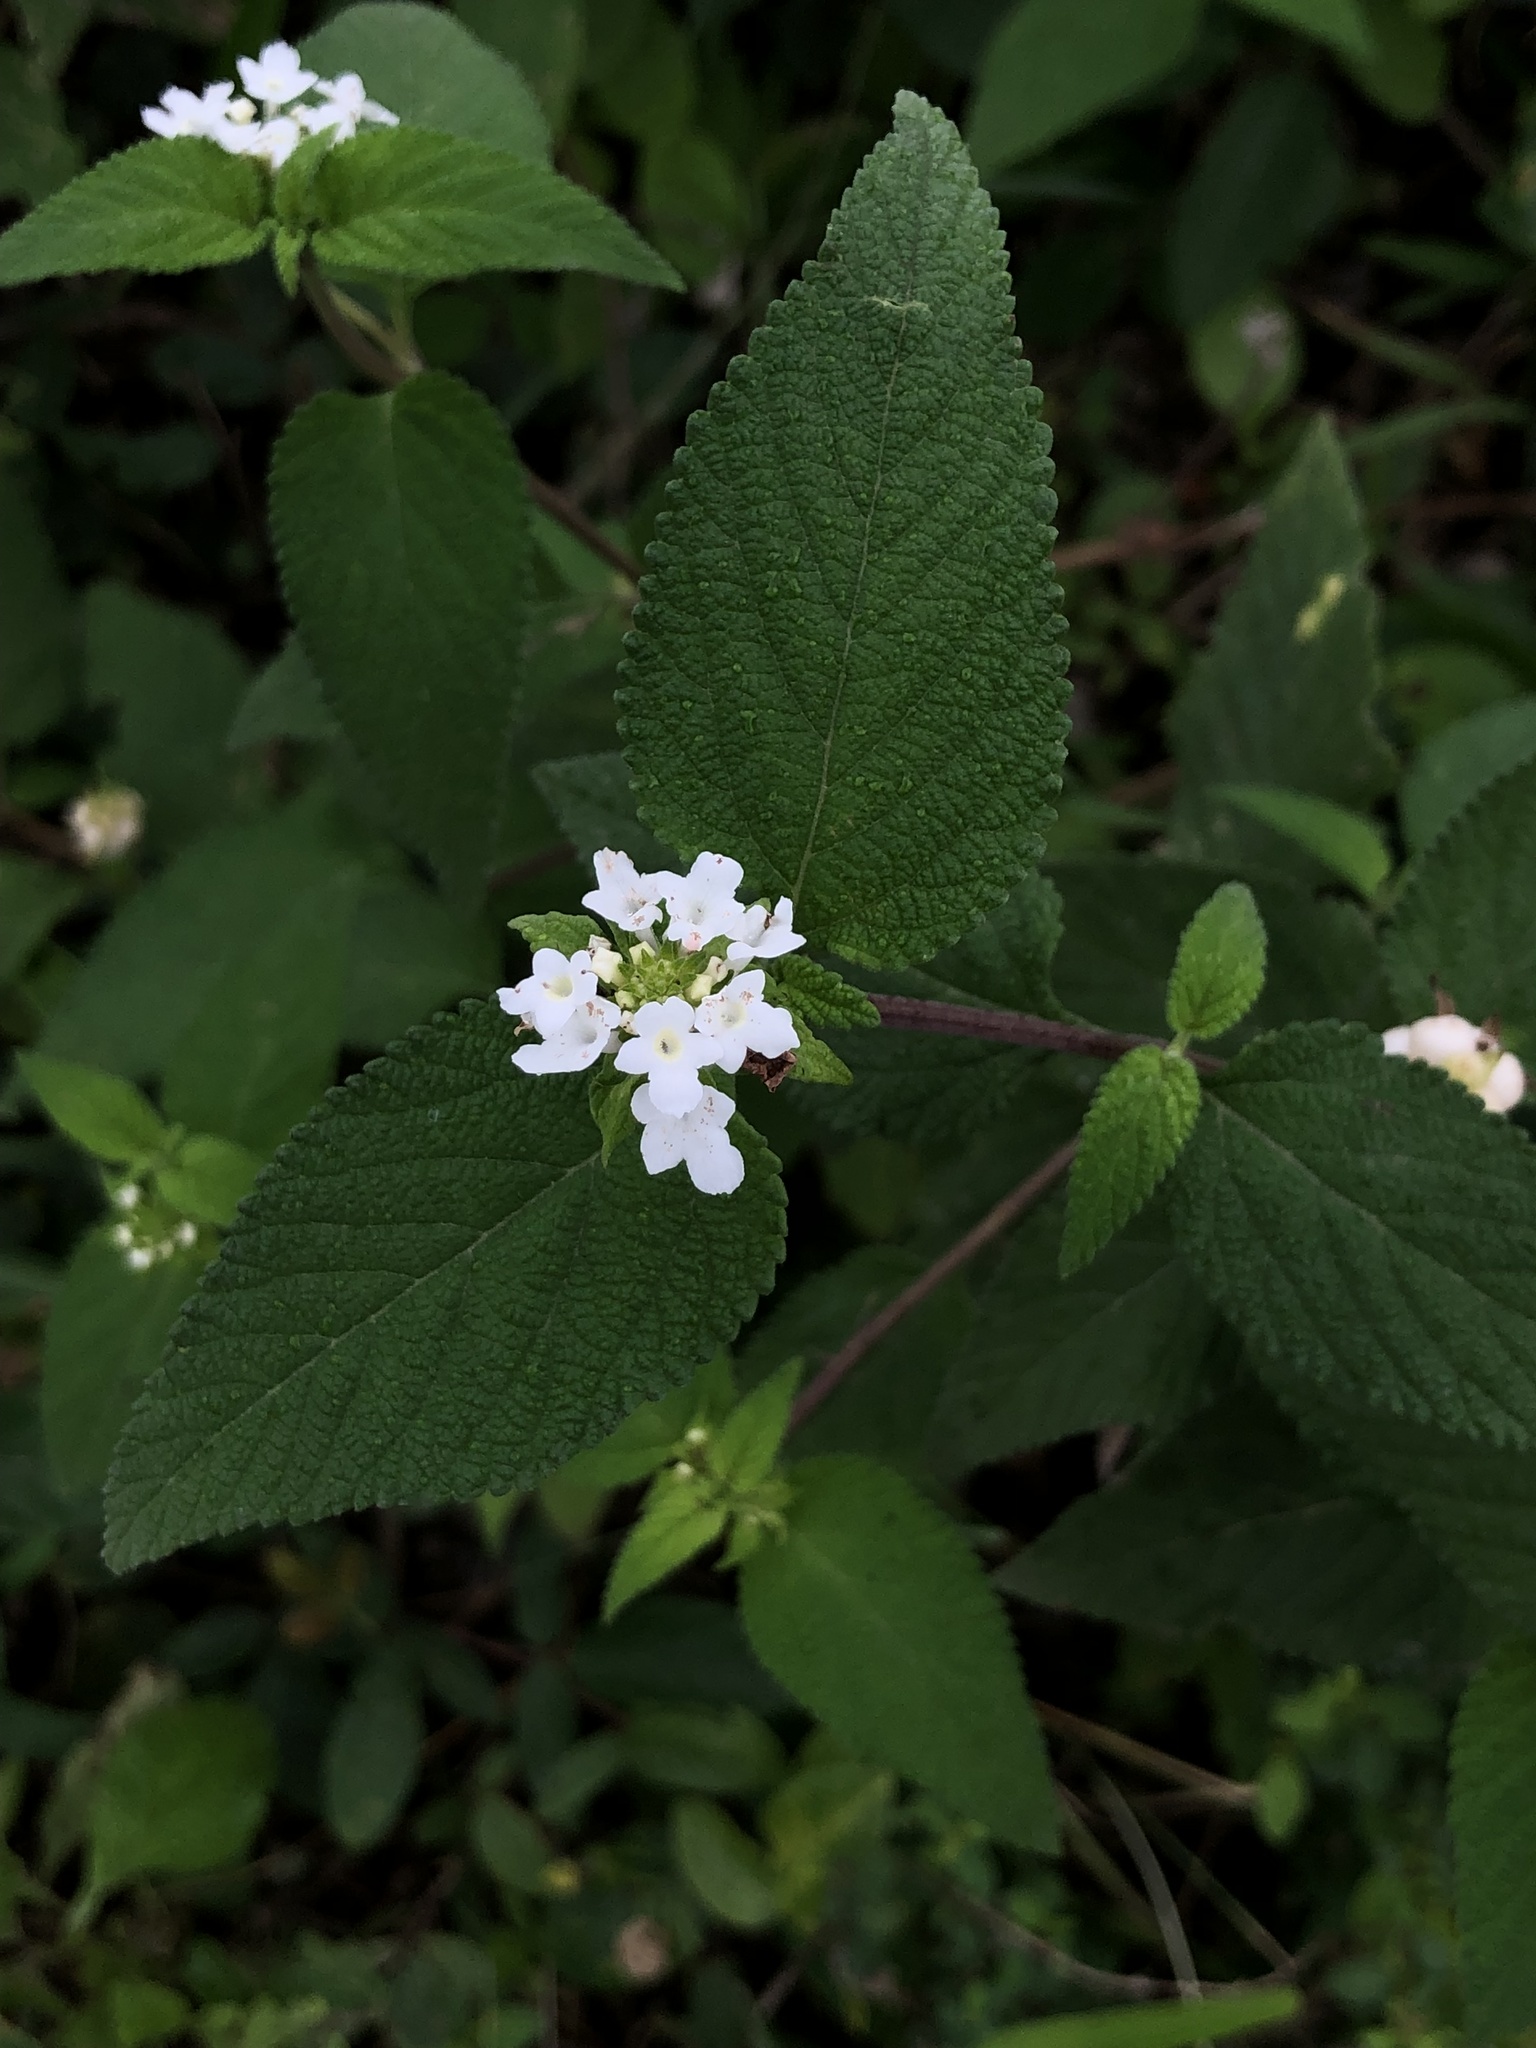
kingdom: Plantae
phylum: Tracheophyta
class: Magnoliopsida
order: Lamiales
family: Verbenaceae
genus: Lantana
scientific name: Lantana sprucei
